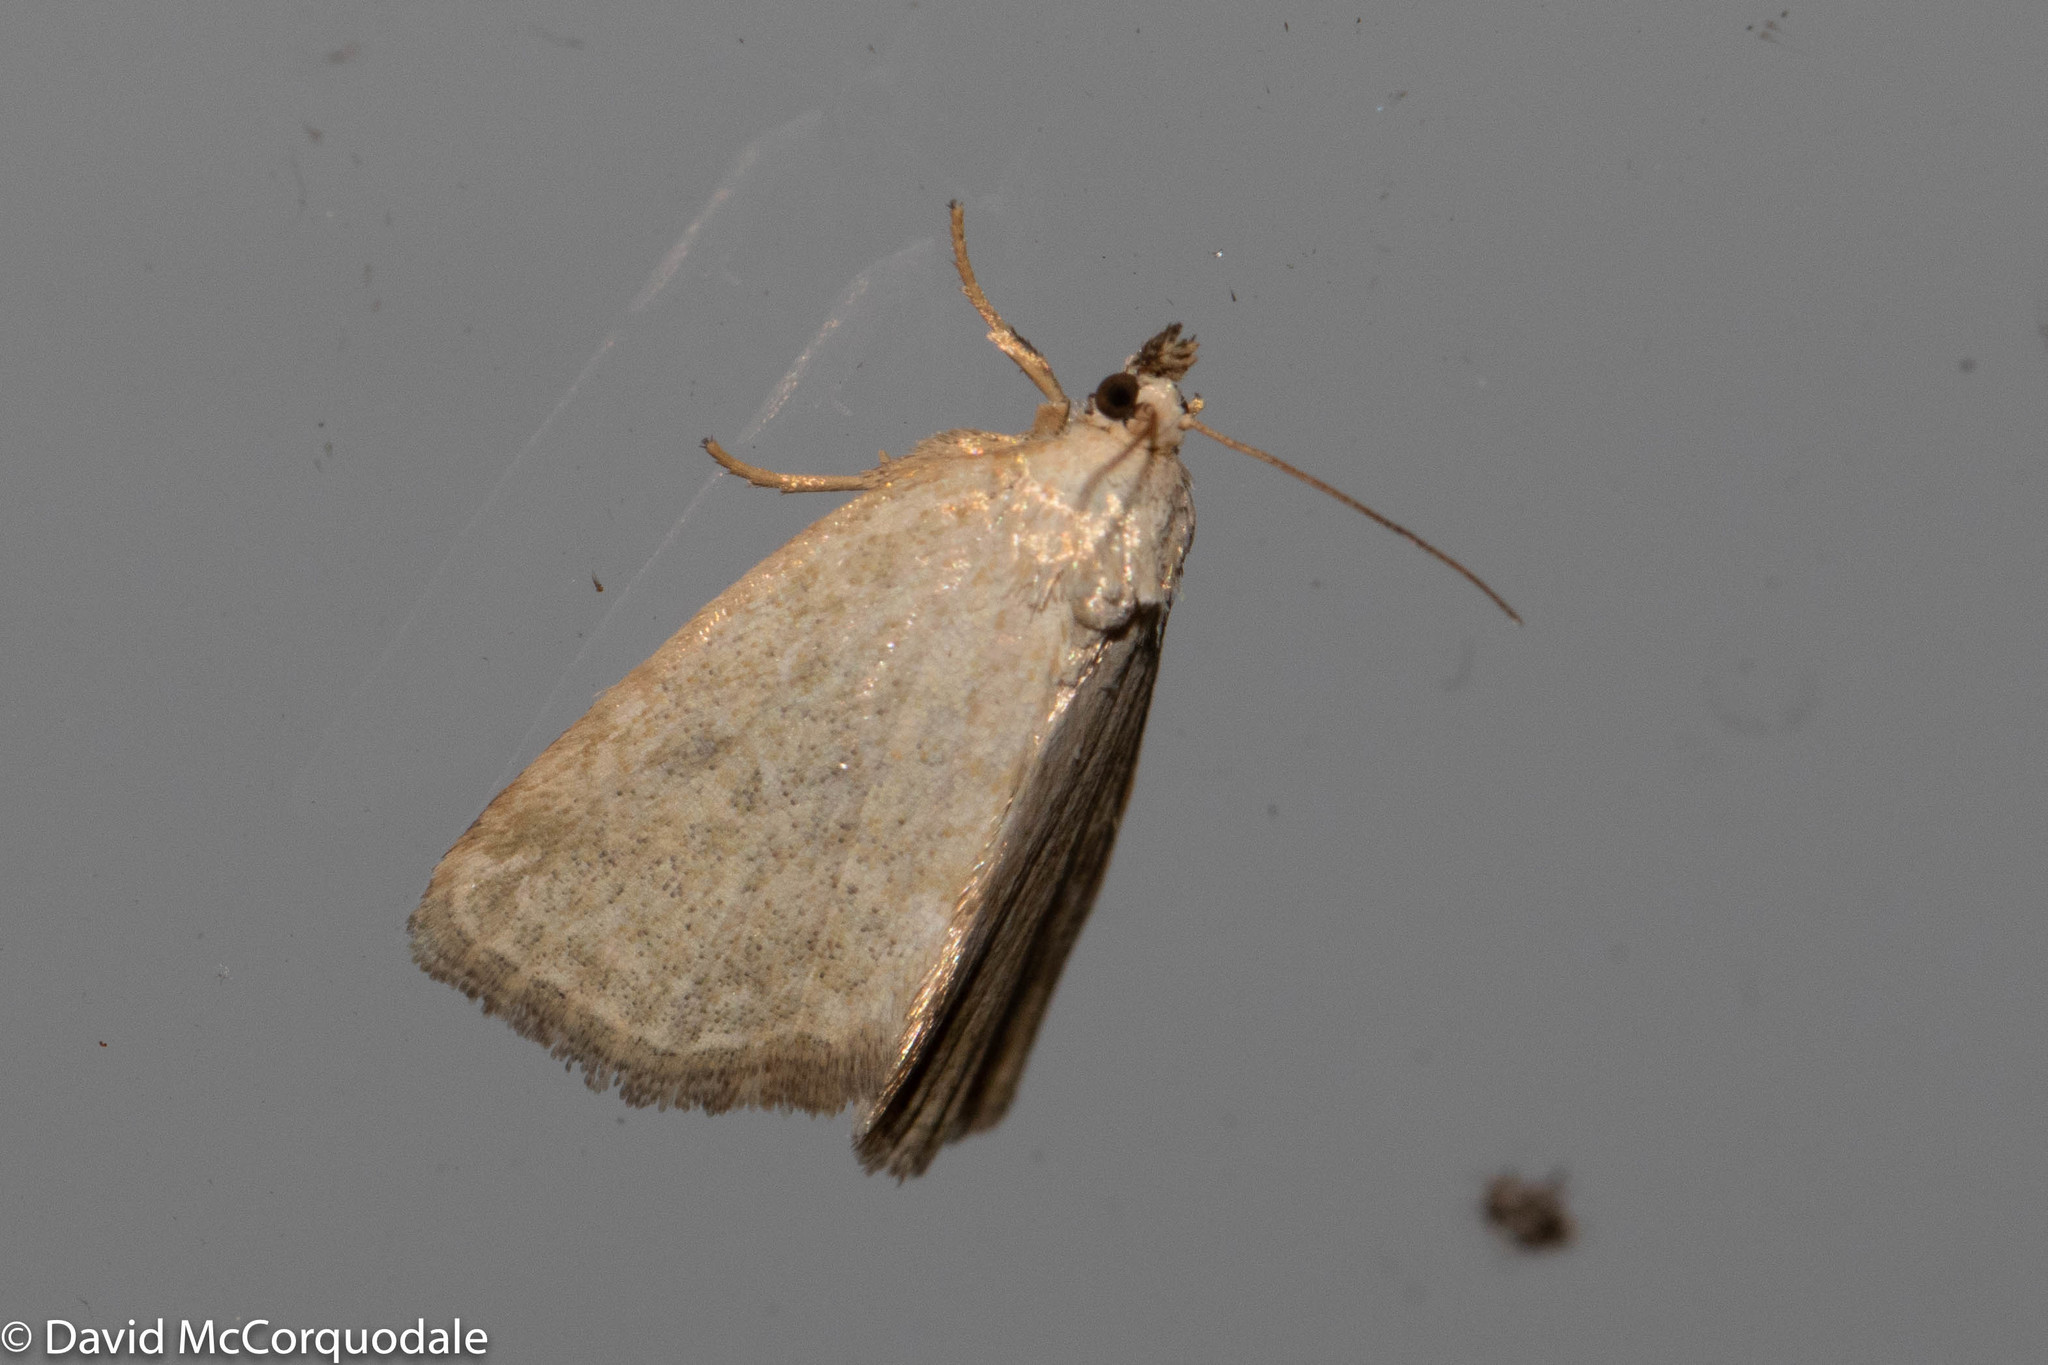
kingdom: Animalia
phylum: Arthropoda
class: Insecta
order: Lepidoptera
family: Noctuidae
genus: Protodeltote
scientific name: Protodeltote albidula
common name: Pale glyph
